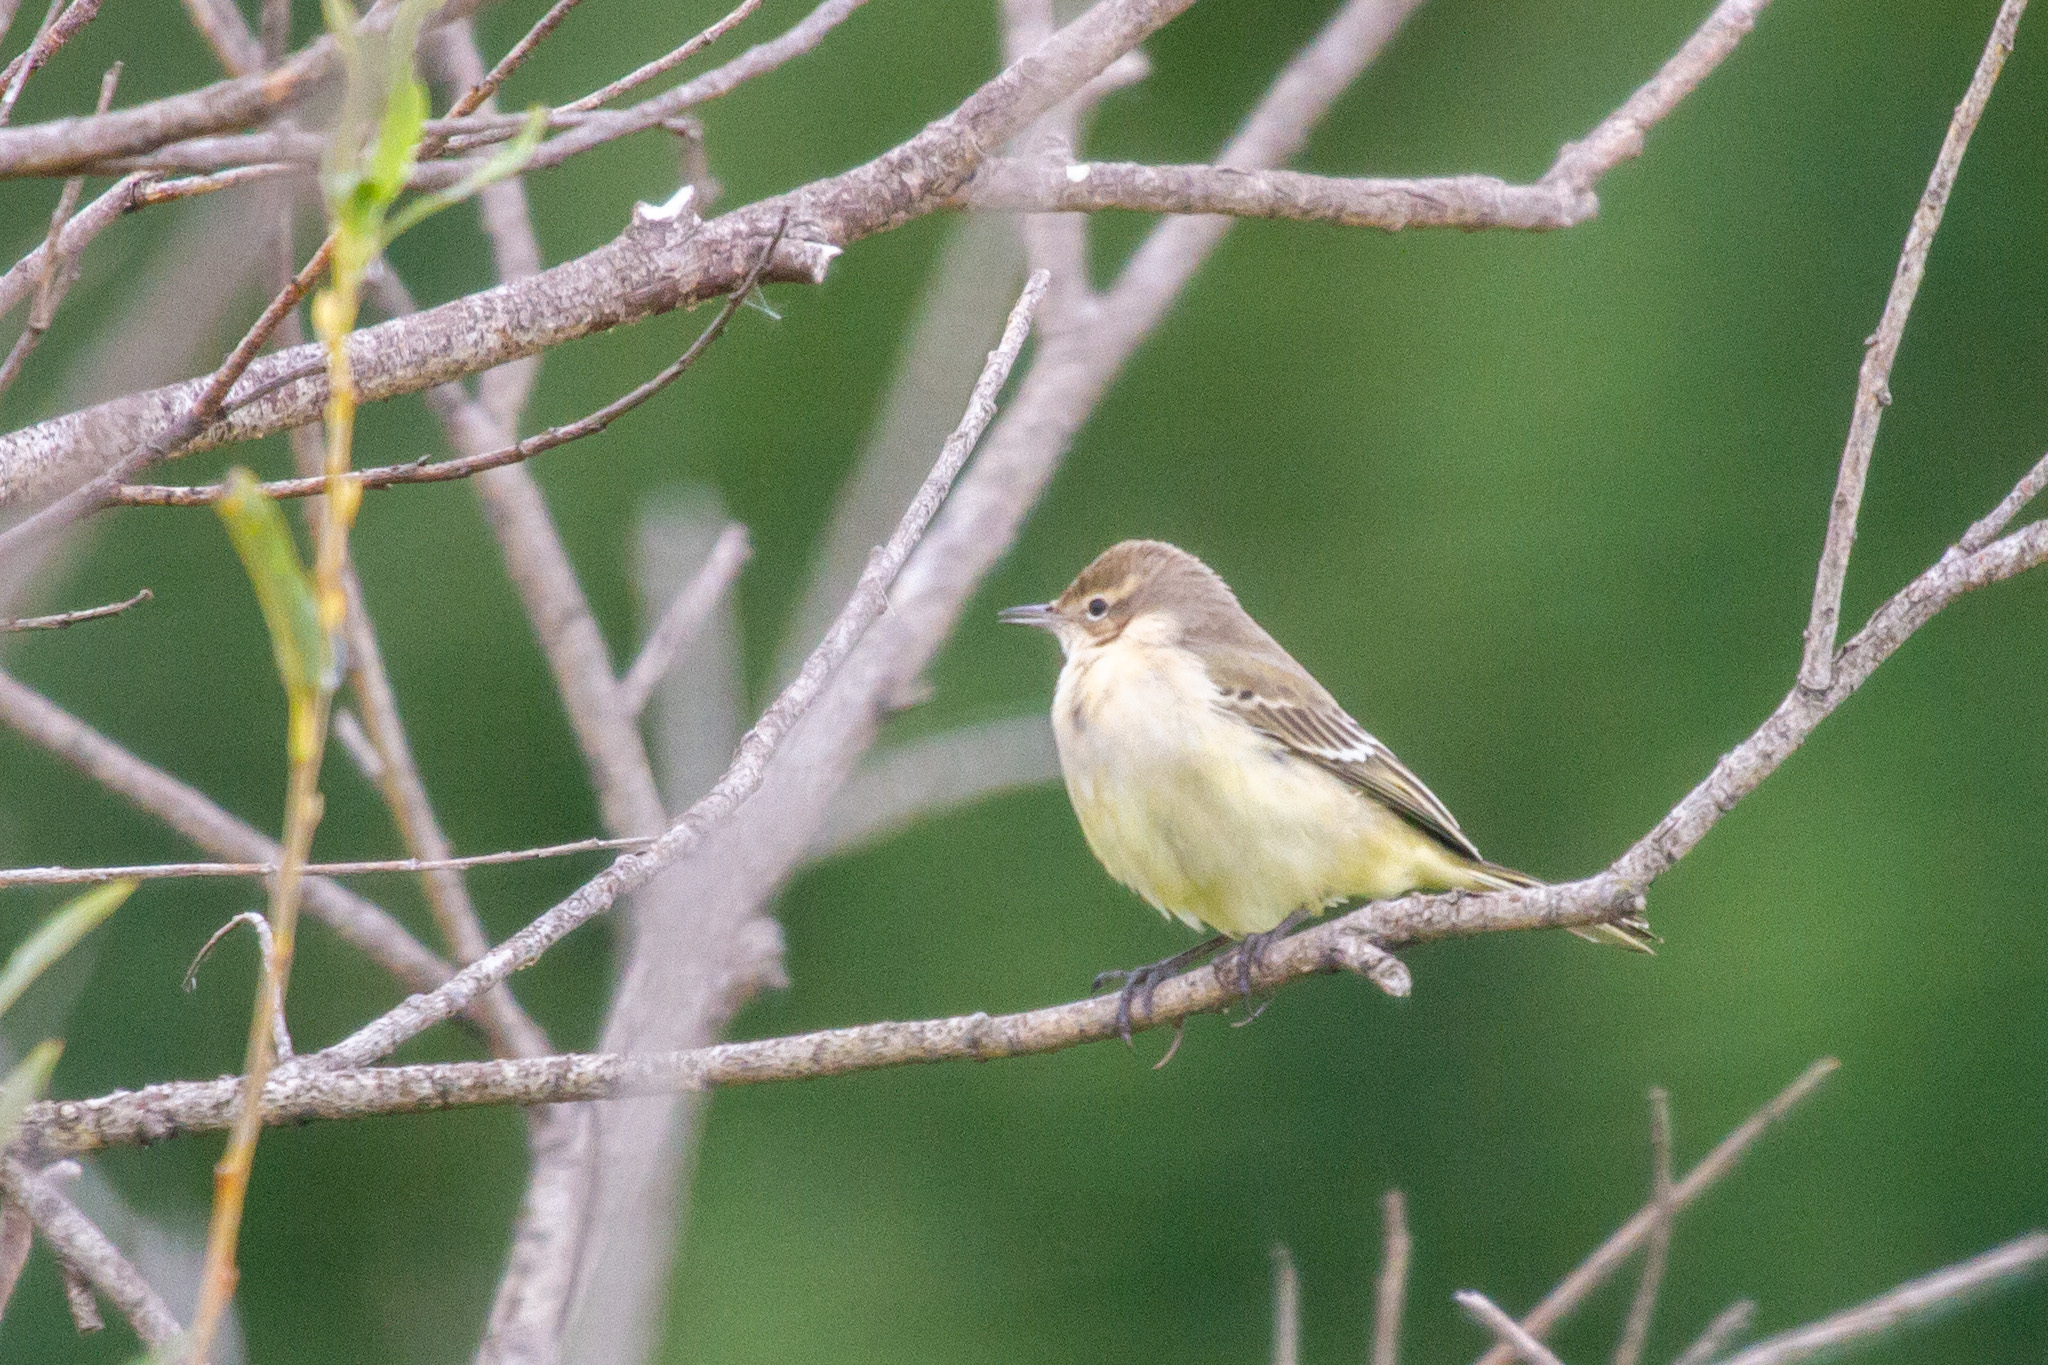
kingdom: Animalia
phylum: Chordata
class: Aves
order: Passeriformes
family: Motacillidae
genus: Motacilla
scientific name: Motacilla flava
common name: Western yellow wagtail
